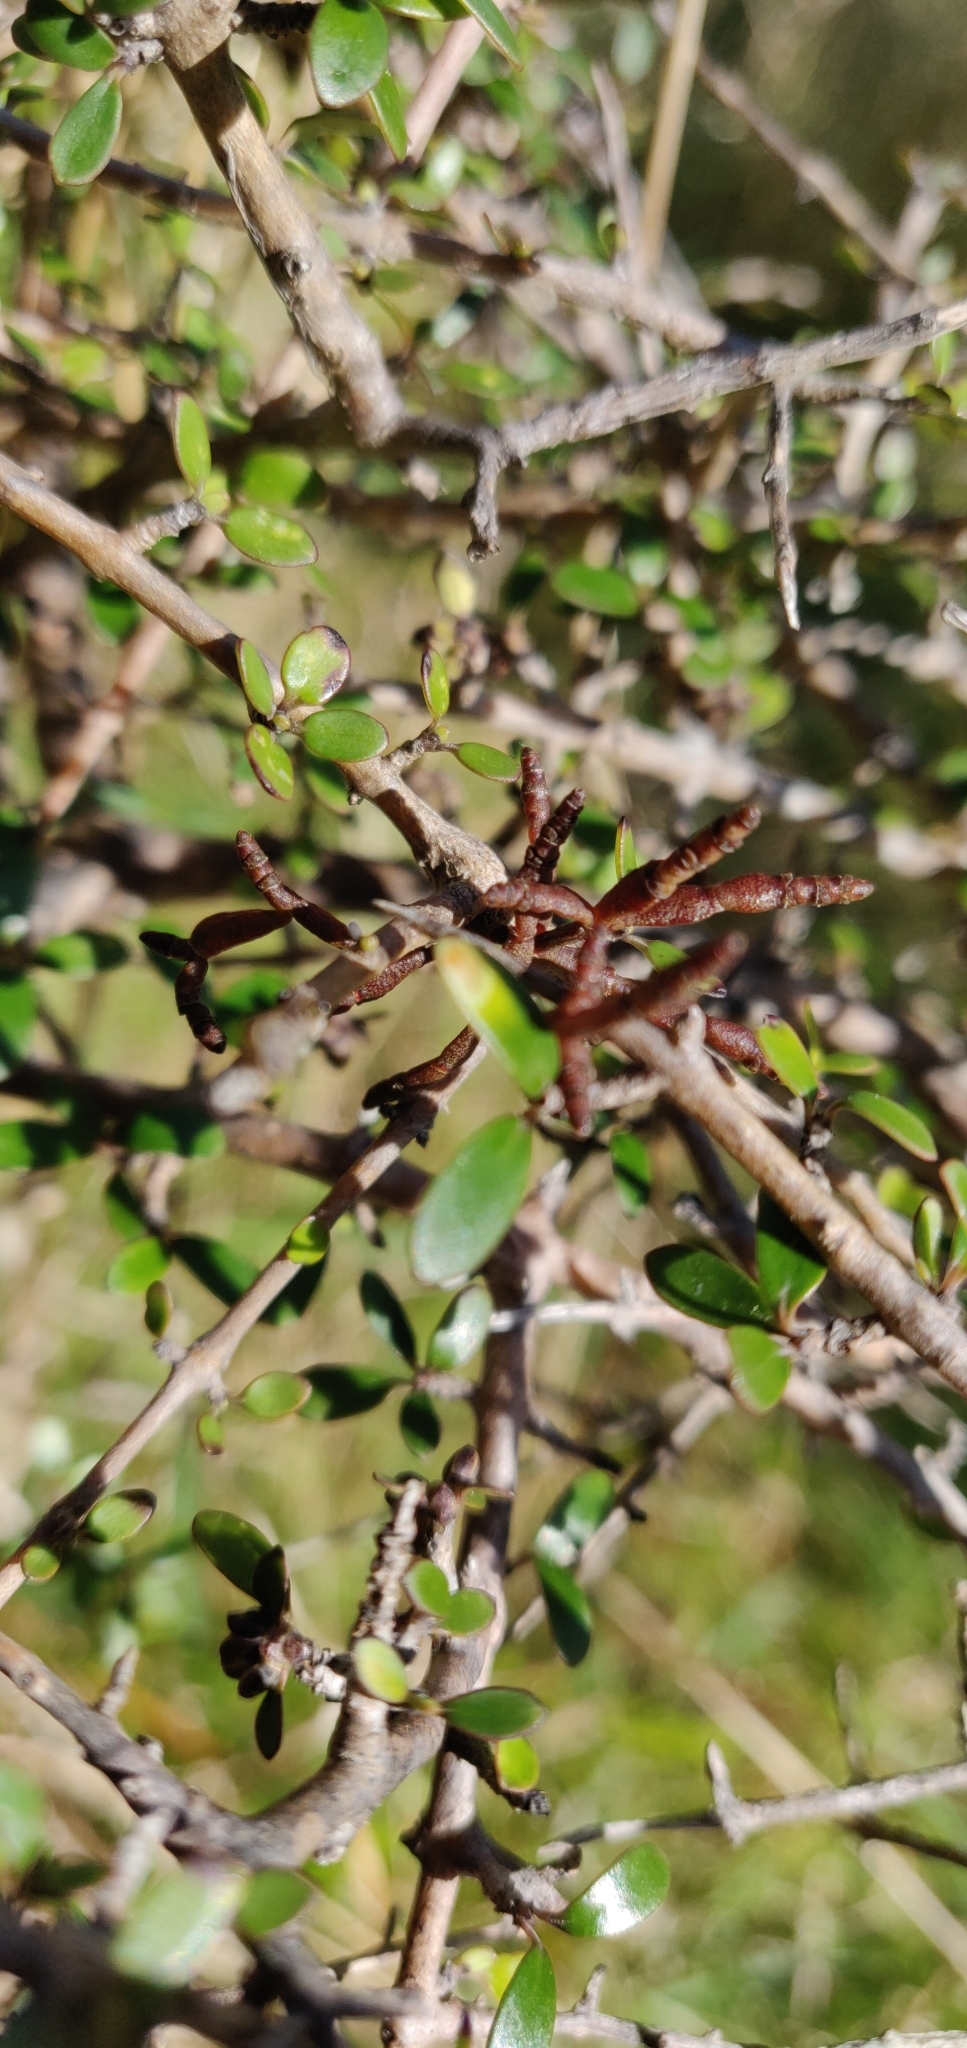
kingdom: Plantae
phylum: Tracheophyta
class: Magnoliopsida
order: Santalales
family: Viscaceae
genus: Korthalsella
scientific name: Korthalsella clavata
